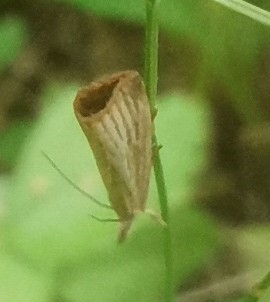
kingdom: Animalia
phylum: Arthropoda
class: Insecta
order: Lepidoptera
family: Crambidae
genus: Agriphila
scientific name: Agriphila straminella
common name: Straw grass-veneer
